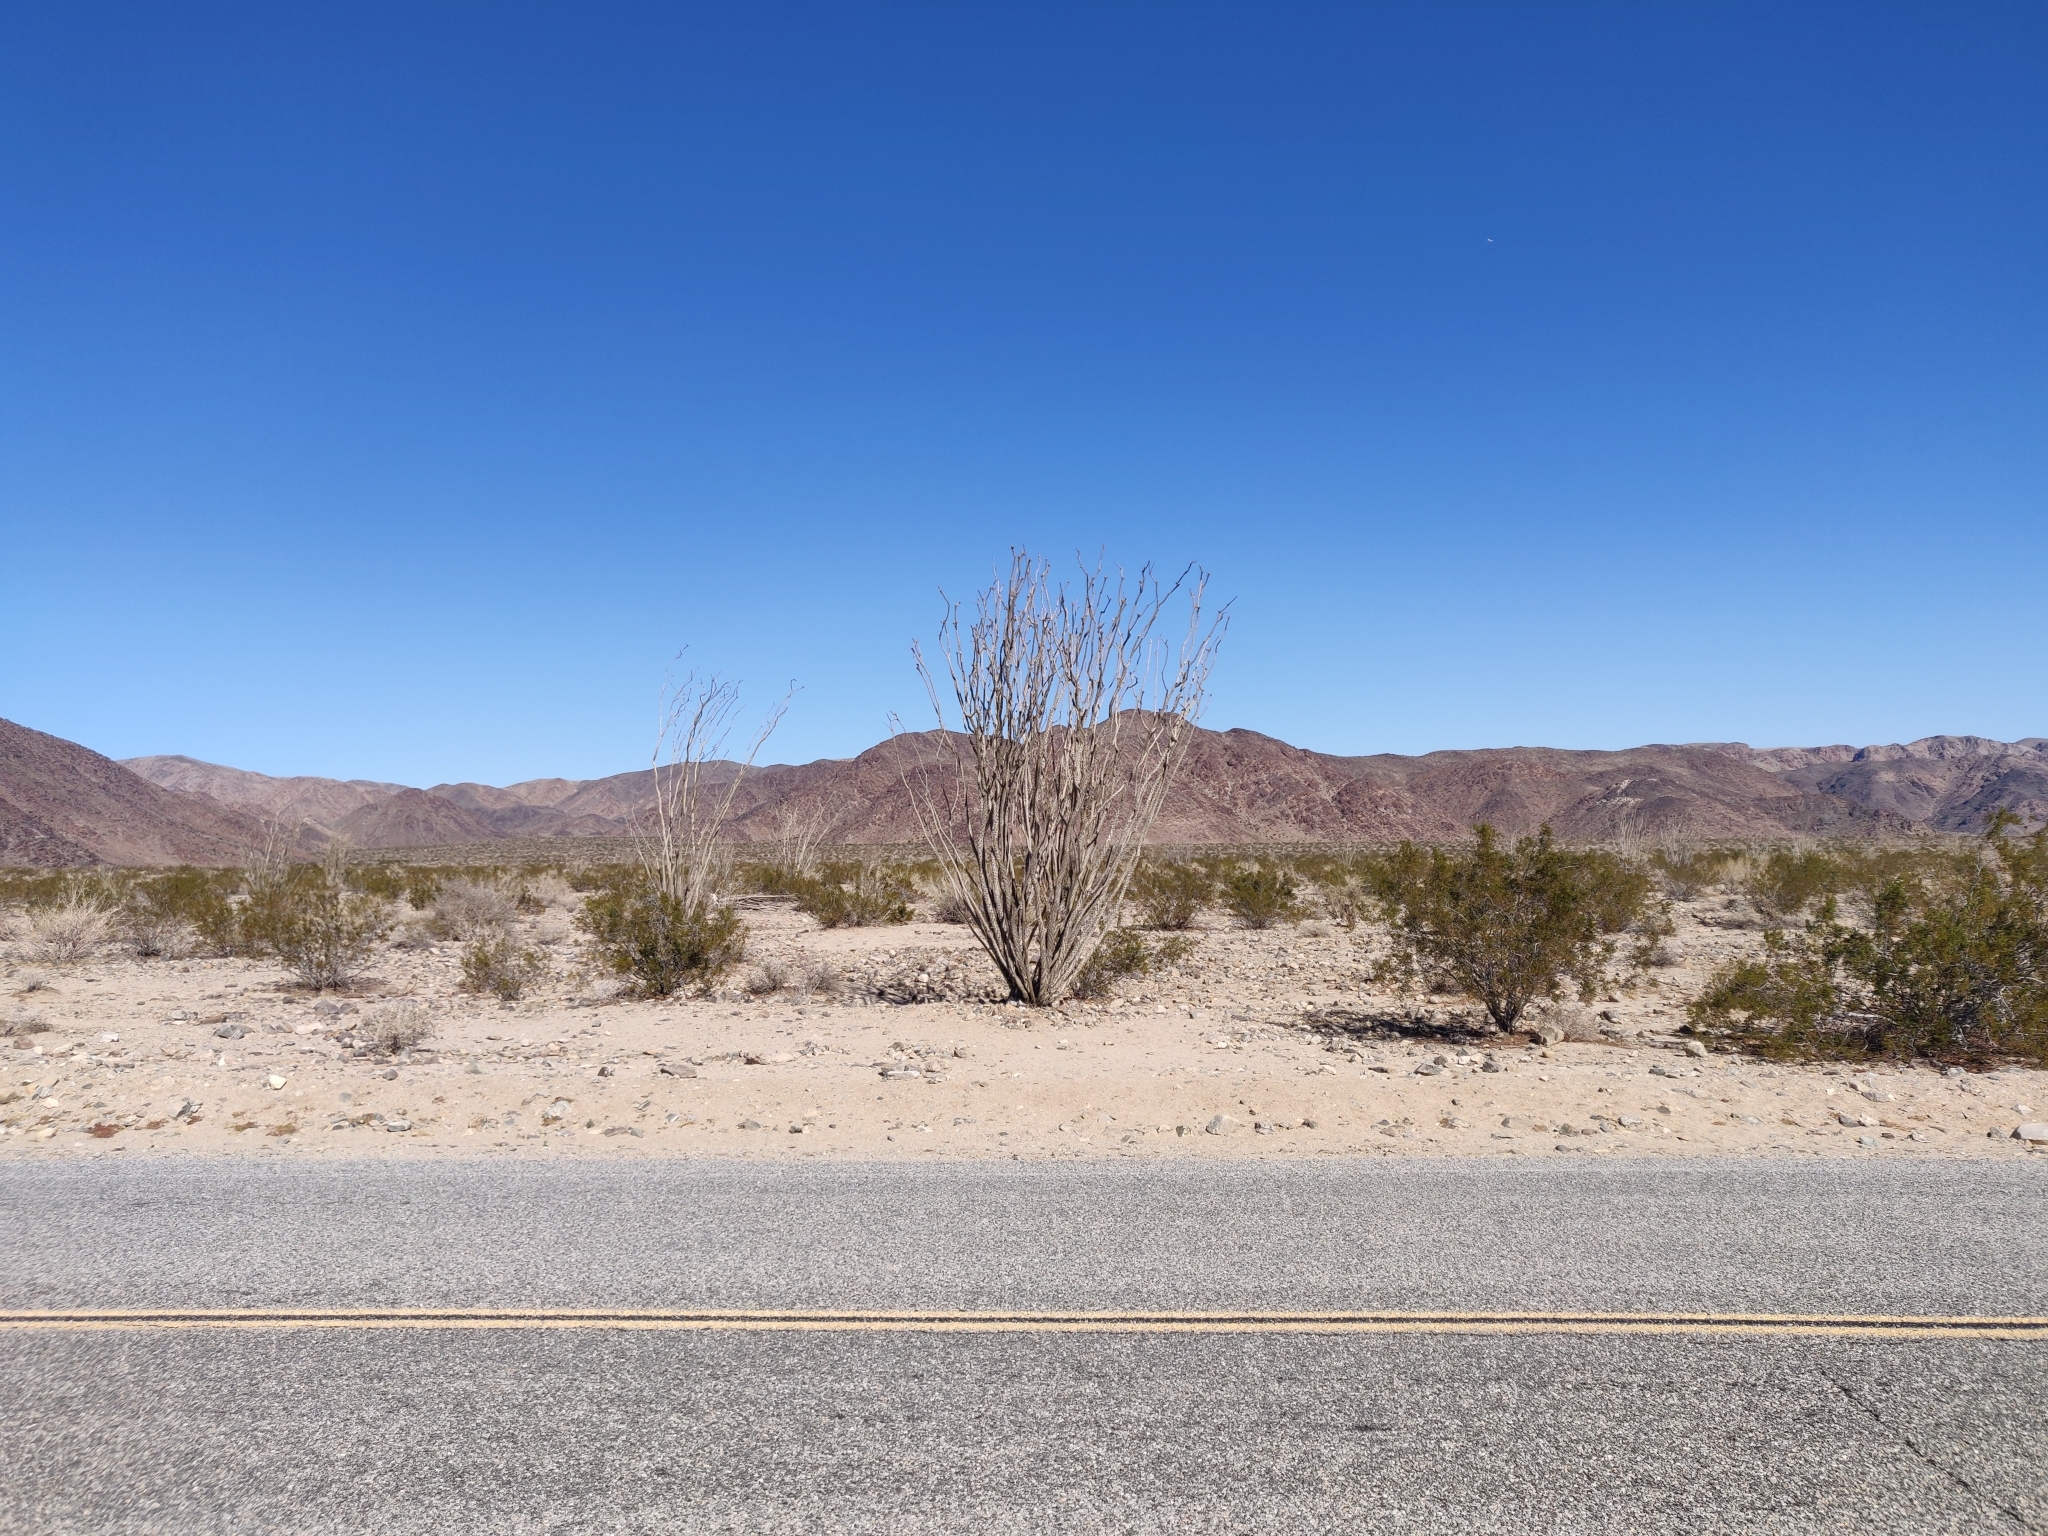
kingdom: Plantae
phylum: Tracheophyta
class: Magnoliopsida
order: Ericales
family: Fouquieriaceae
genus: Fouquieria
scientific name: Fouquieria splendens
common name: Vine-cactus
